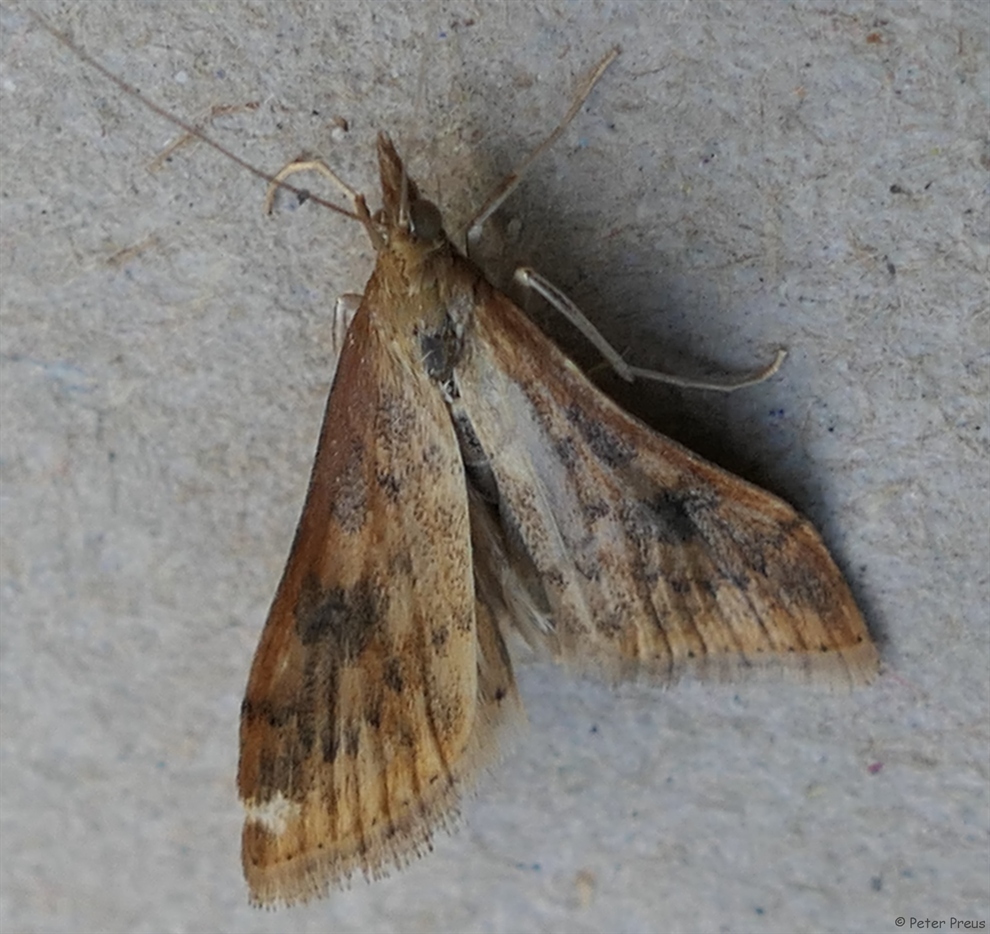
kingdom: Animalia
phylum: Arthropoda
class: Insecta
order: Lepidoptera
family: Crambidae
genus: Udea
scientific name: Udea ferrugalis
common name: Rusty dot
